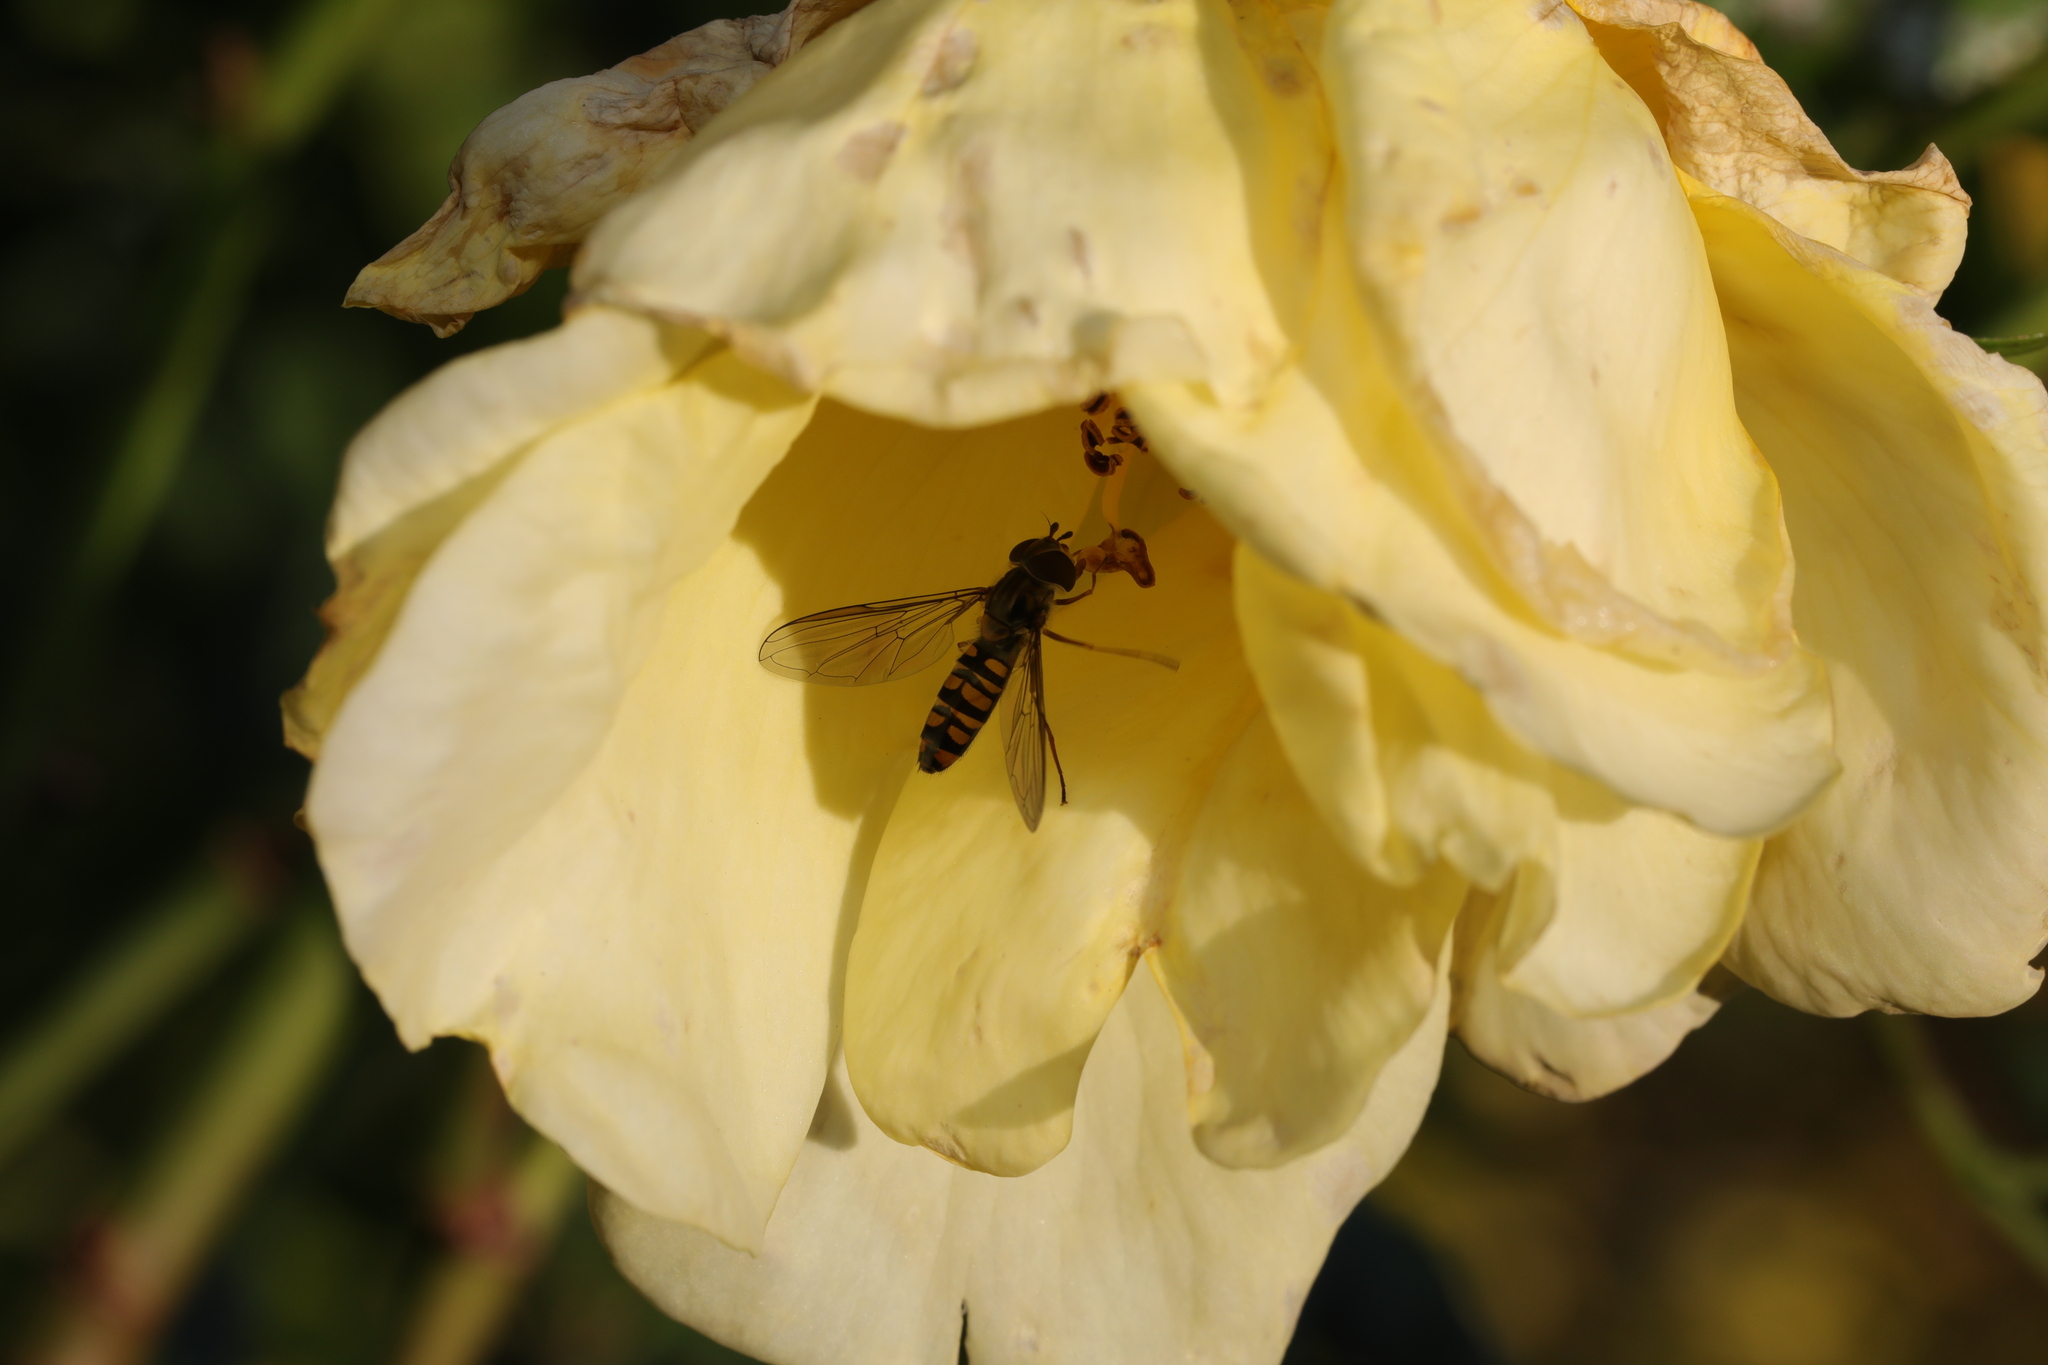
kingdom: Animalia
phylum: Arthropoda
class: Insecta
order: Diptera
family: Syrphidae
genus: Episyrphus
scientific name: Episyrphus balteatus
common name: Marmalade hoverfly
